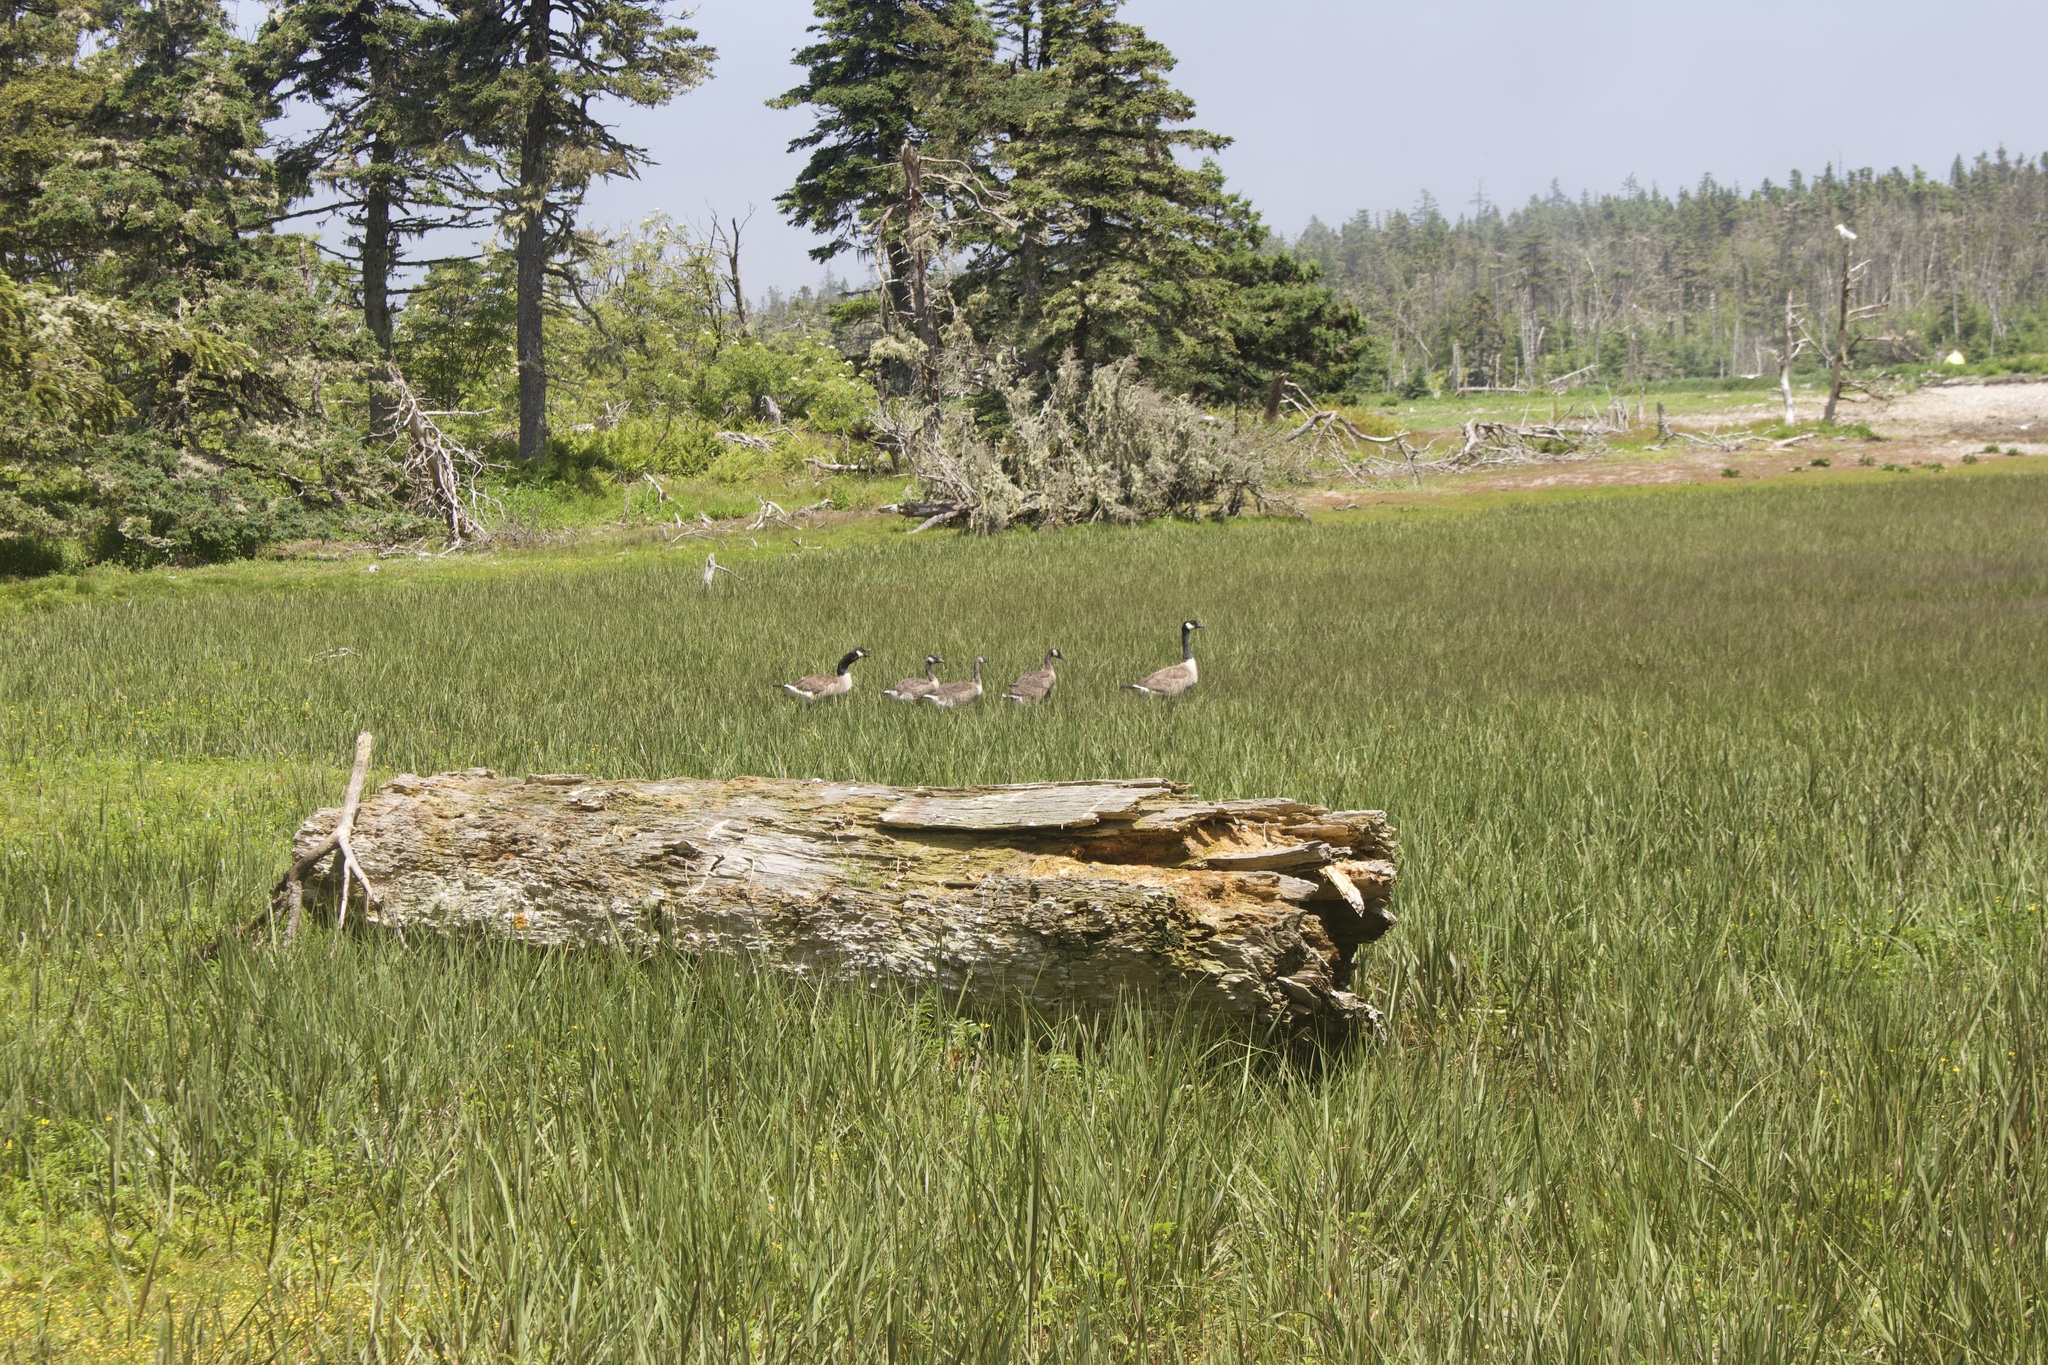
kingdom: Animalia
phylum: Chordata
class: Aves
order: Anseriformes
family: Anatidae
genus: Branta
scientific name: Branta canadensis
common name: Canada goose
